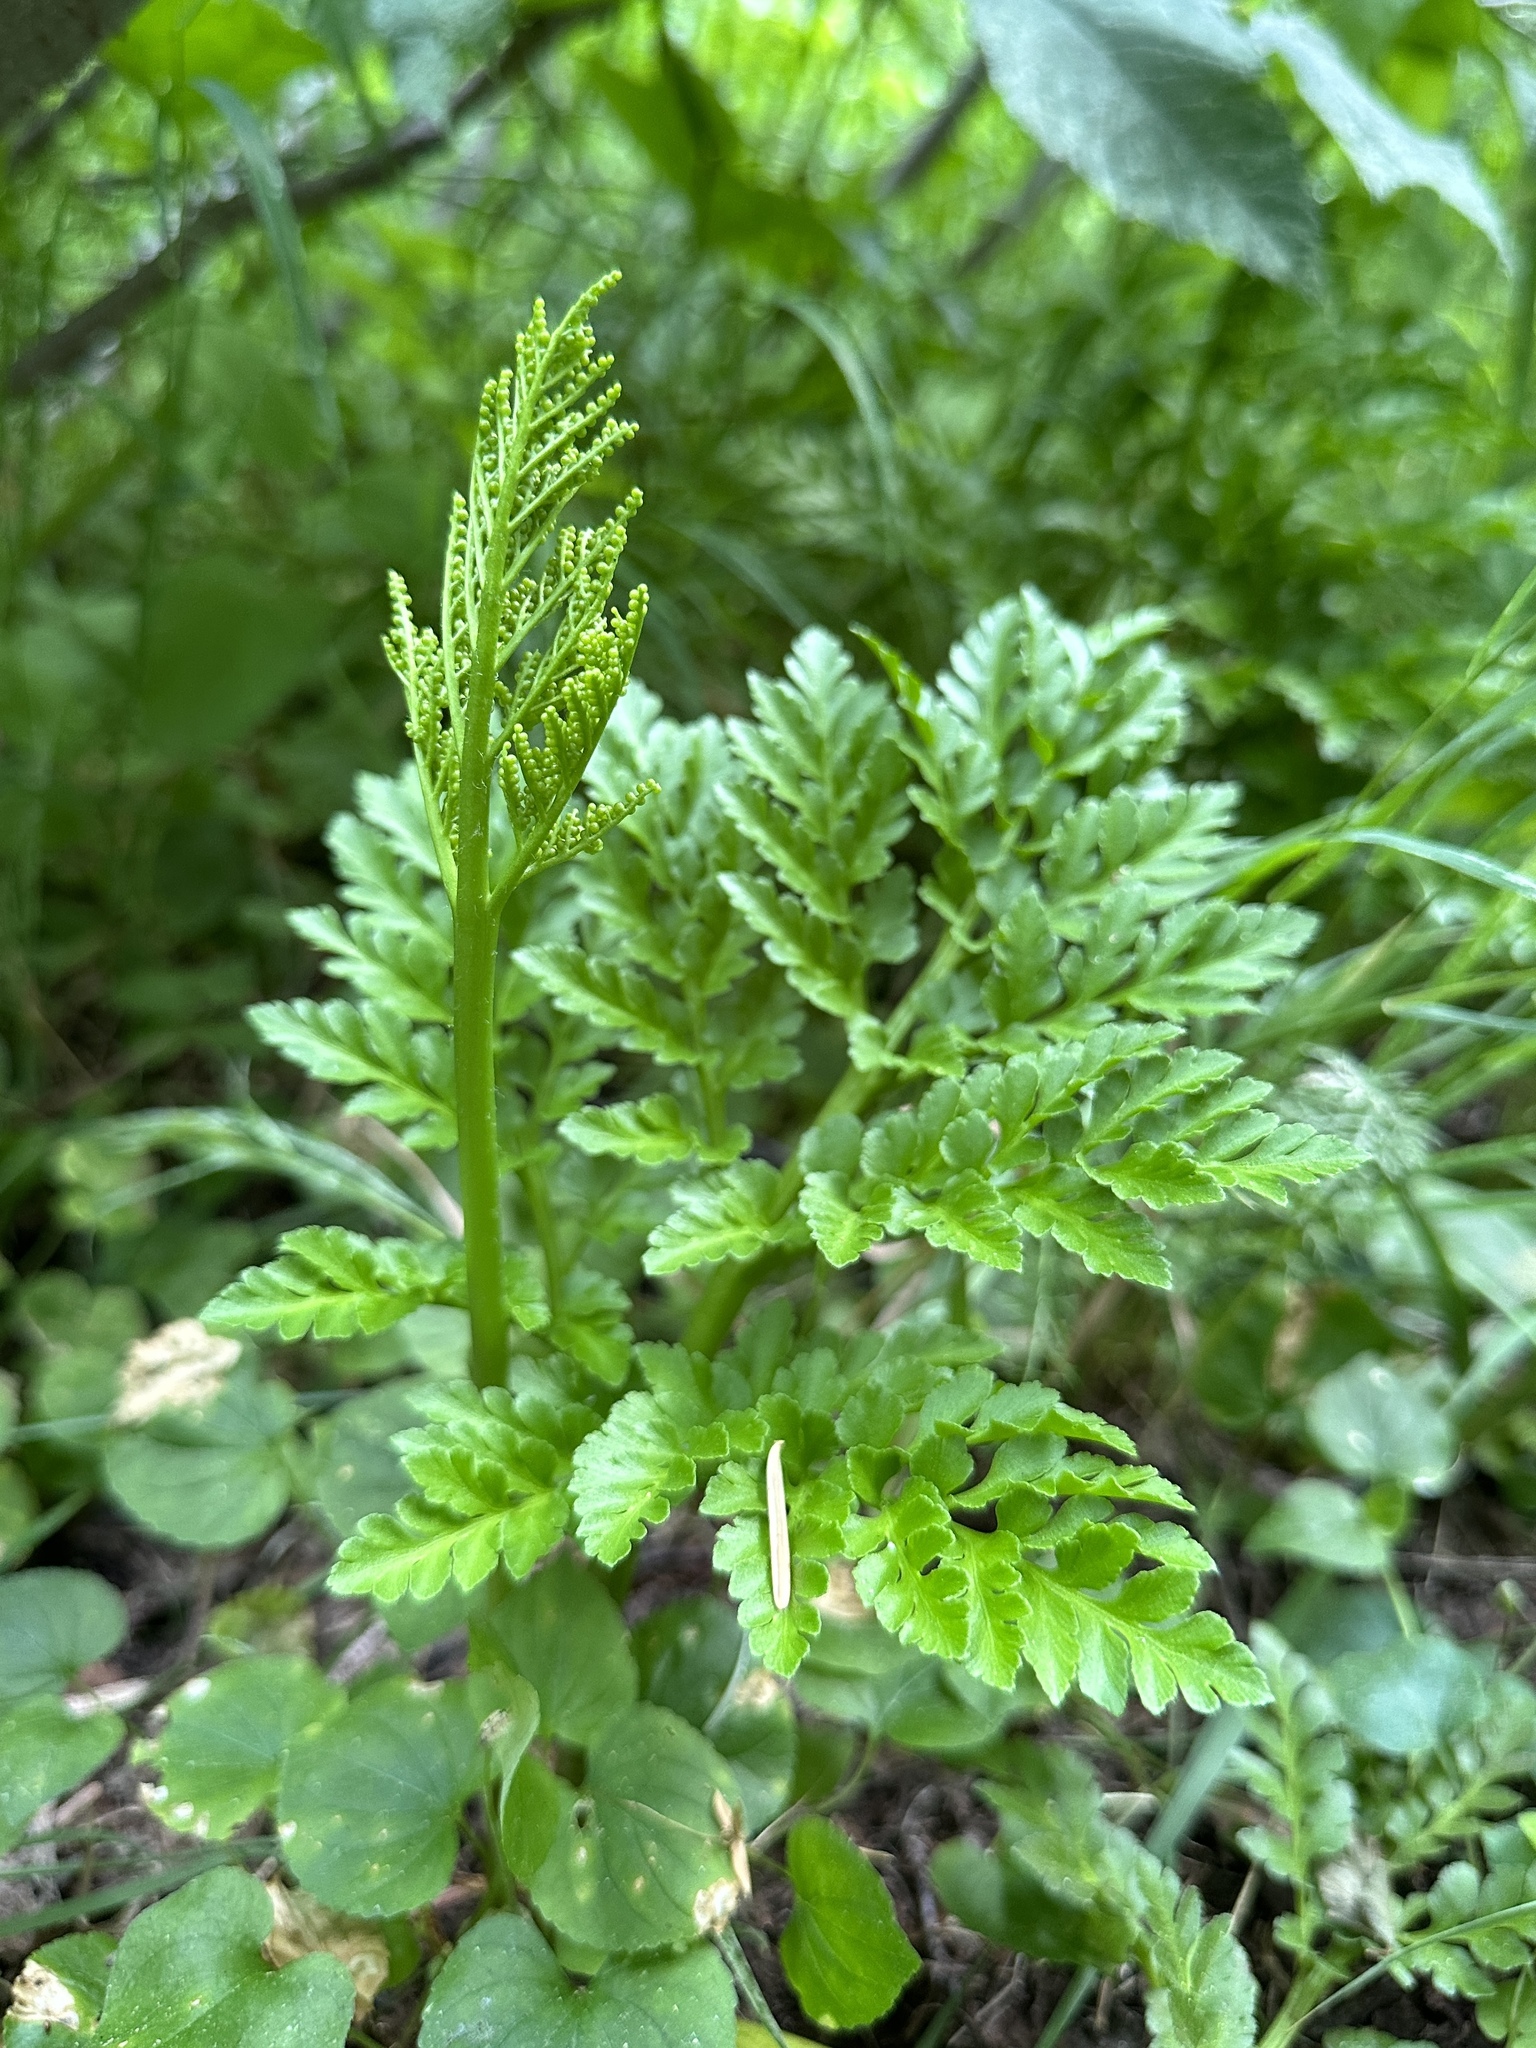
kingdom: Plantae
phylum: Tracheophyta
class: Polypodiopsida
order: Ophioglossales
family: Ophioglossaceae
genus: Sceptridium
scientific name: Sceptridium multifidum
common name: Leathery grape fern
